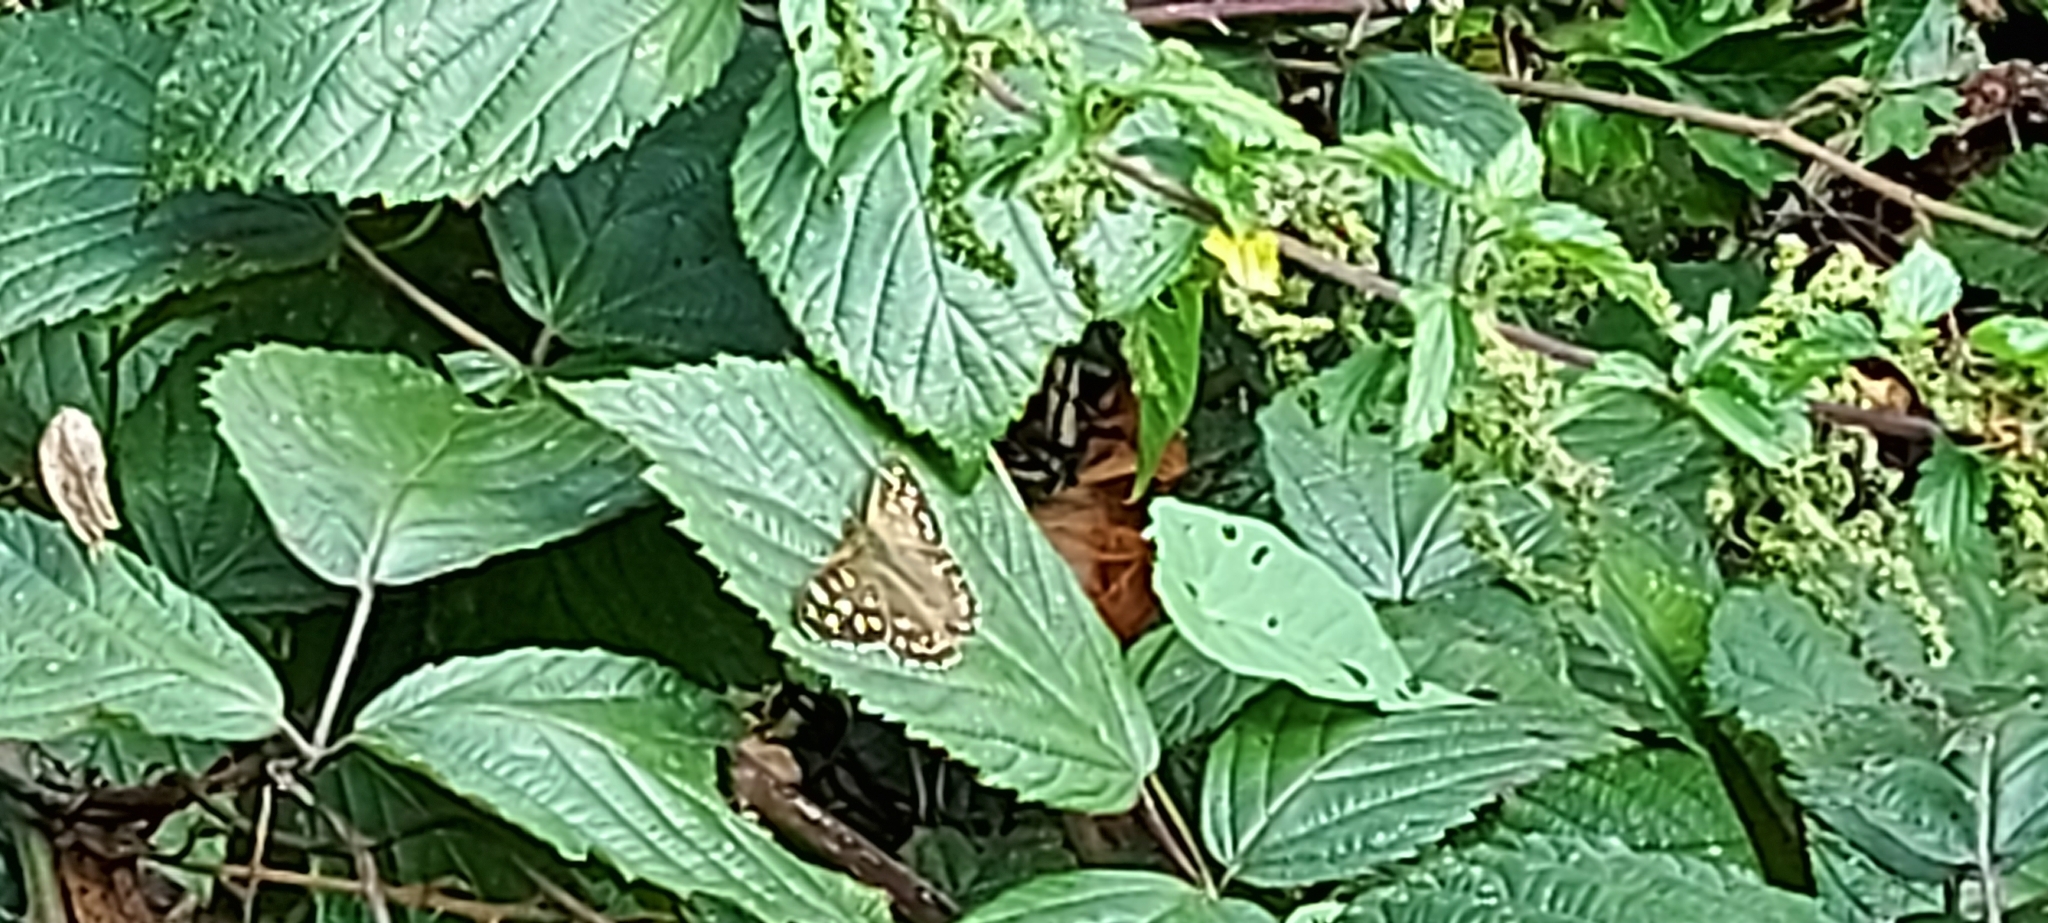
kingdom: Animalia
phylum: Arthropoda
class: Insecta
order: Lepidoptera
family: Nymphalidae
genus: Pararge
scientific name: Pararge aegeria
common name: Speckled wood
